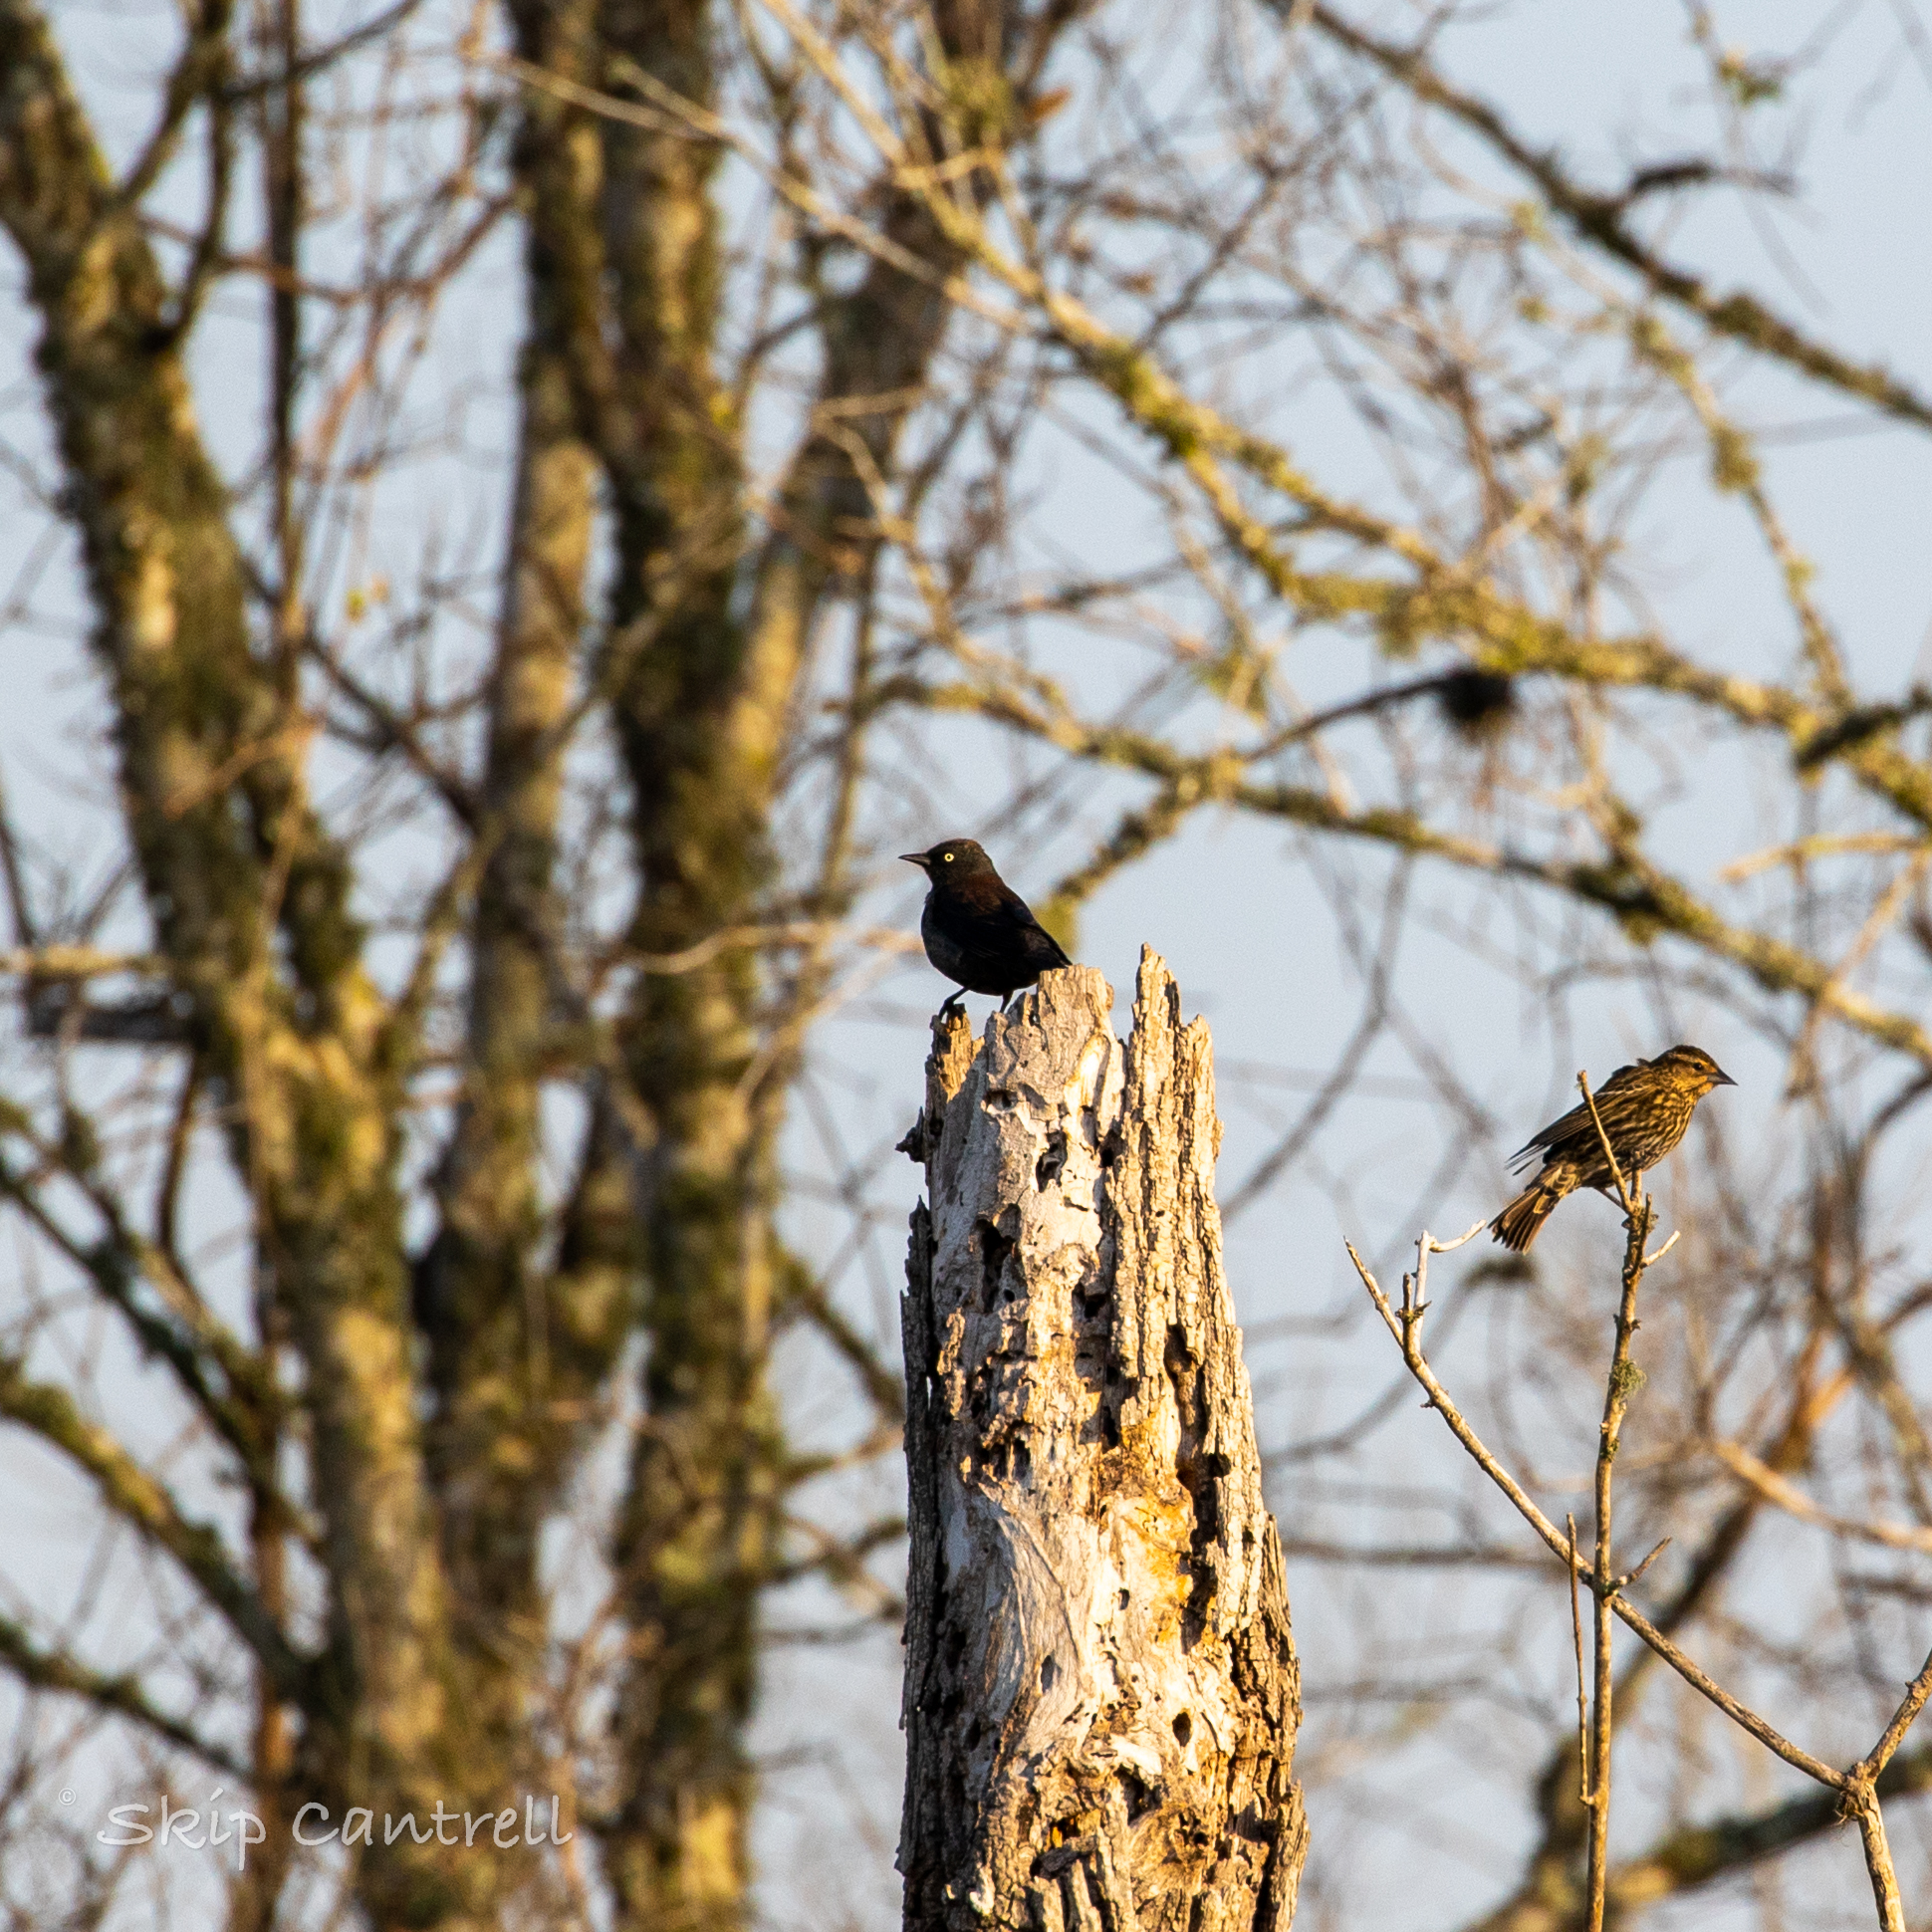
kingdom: Animalia
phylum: Chordata
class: Aves
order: Passeriformes
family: Icteridae
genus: Euphagus
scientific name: Euphagus carolinus
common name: Rusty blackbird
